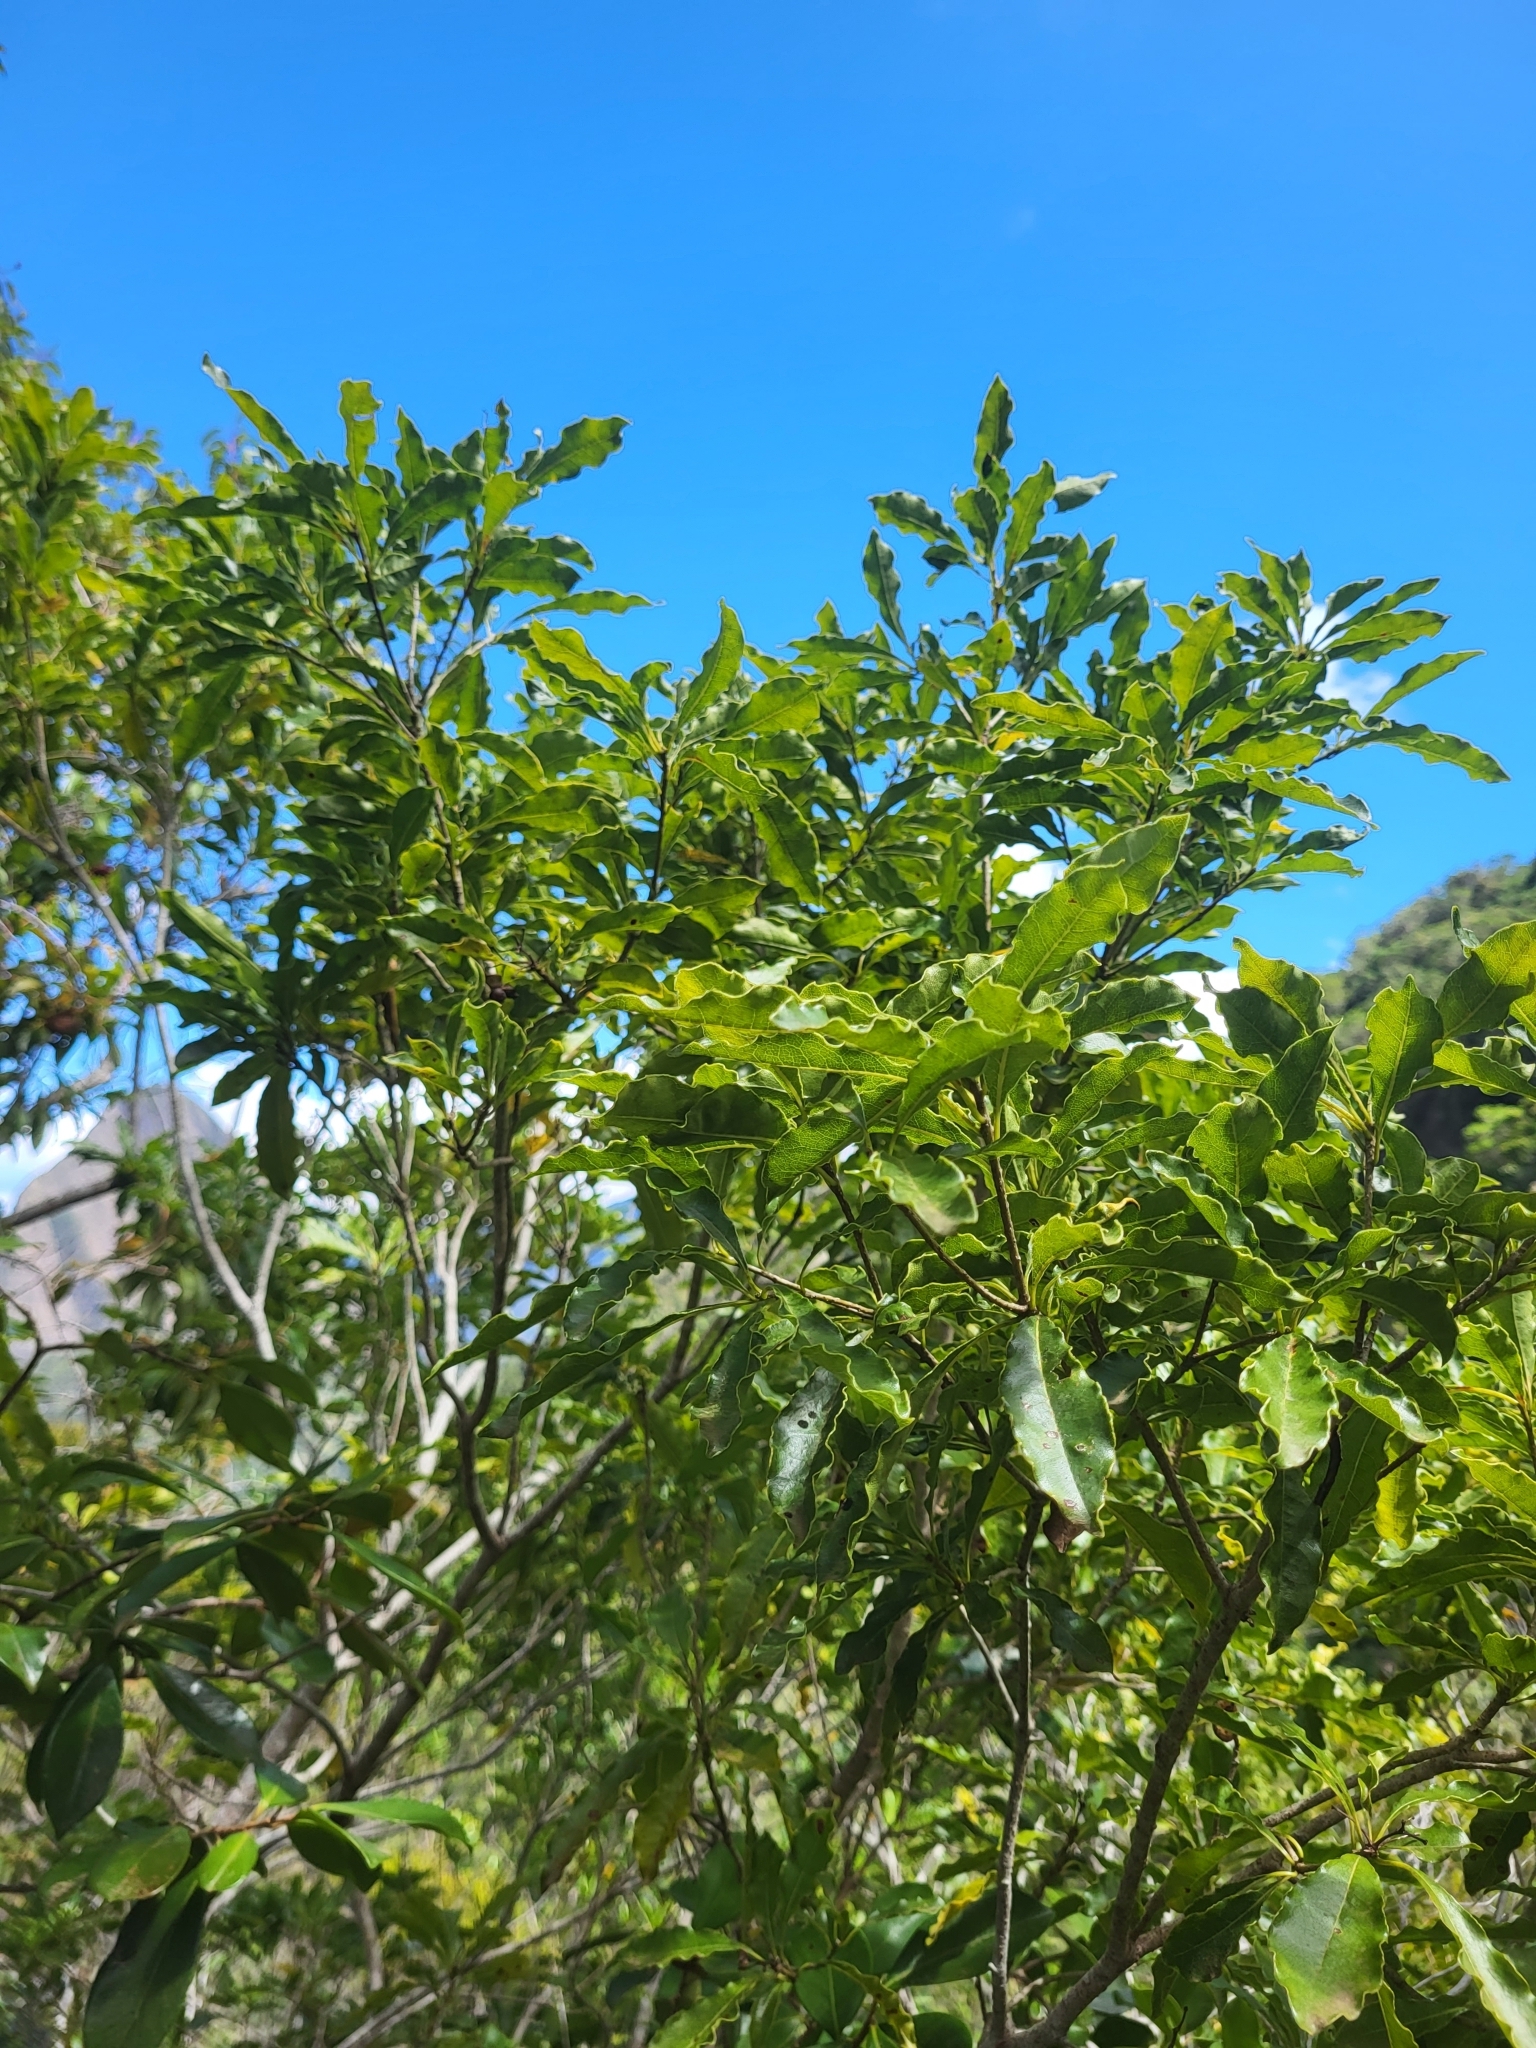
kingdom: Plantae
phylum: Tracheophyta
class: Magnoliopsida
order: Apiales
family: Pittosporaceae
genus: Pittosporum
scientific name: Pittosporum senacia
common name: Cheesewood
